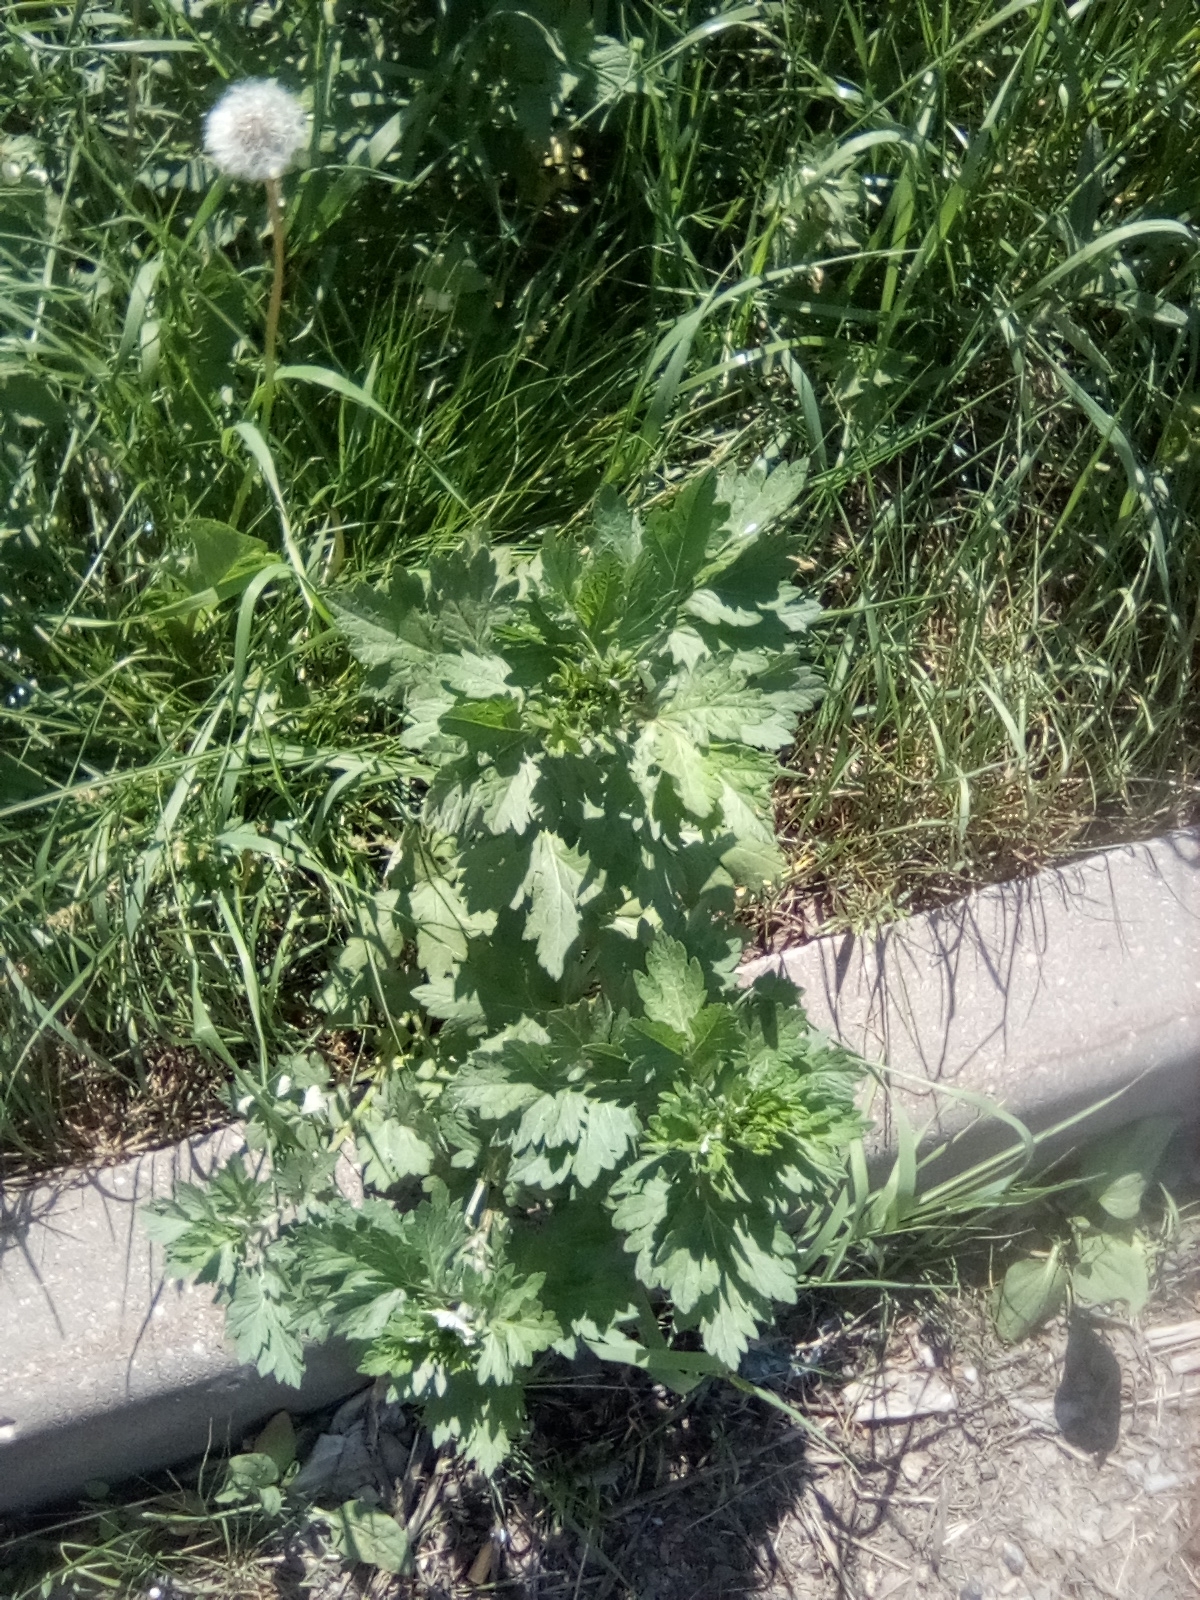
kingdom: Plantae
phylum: Tracheophyta
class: Magnoliopsida
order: Asterales
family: Asteraceae
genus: Artemisia
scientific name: Artemisia vulgaris
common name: Mugwort
